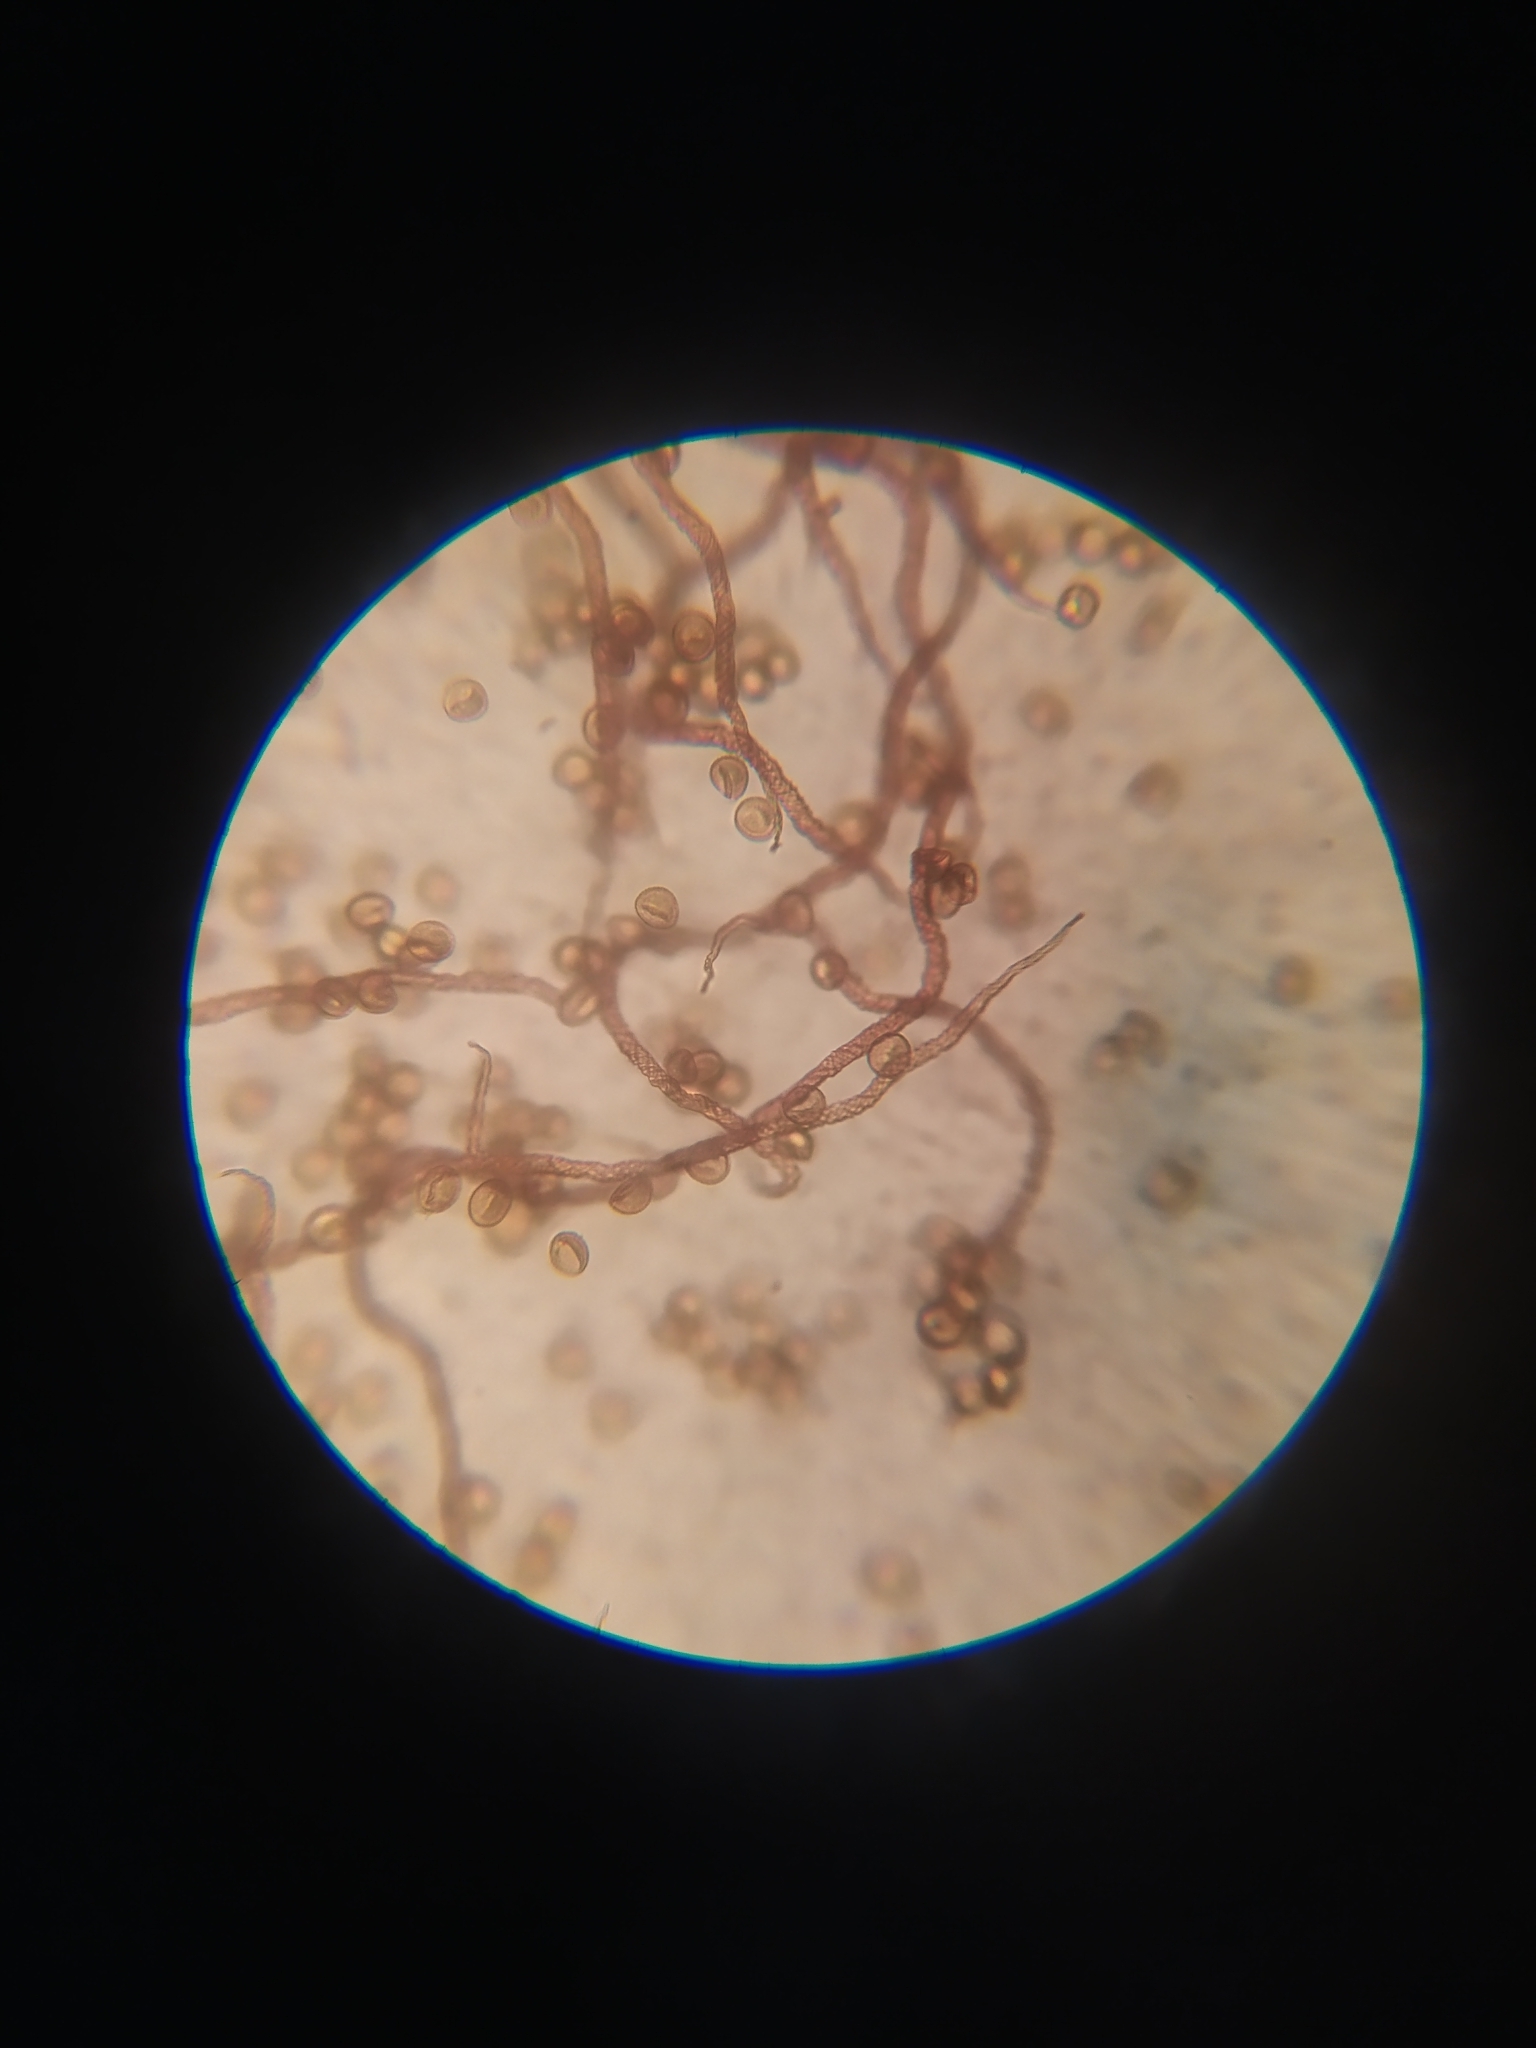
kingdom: Protozoa
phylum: Mycetozoa
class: Myxomycetes
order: Trichiales
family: Trichiaceae
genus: Metatrichia
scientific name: Metatrichia floriformis
